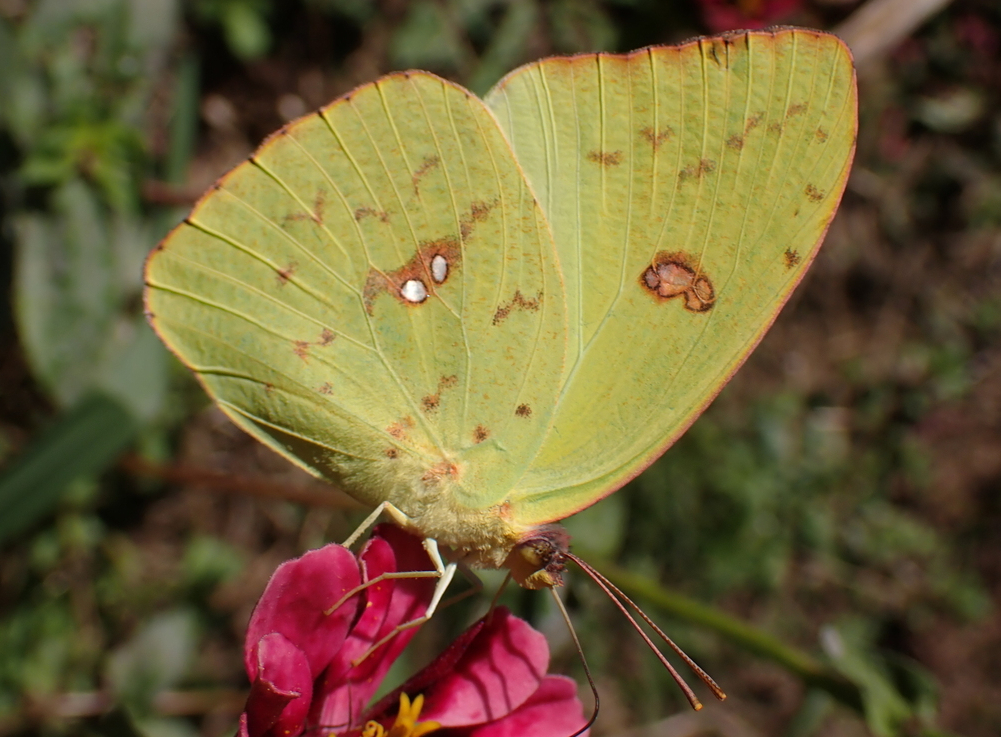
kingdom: Animalia
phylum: Arthropoda
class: Insecta
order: Lepidoptera
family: Pieridae
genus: Phoebis
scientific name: Phoebis sennae
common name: Cloudless sulphur
